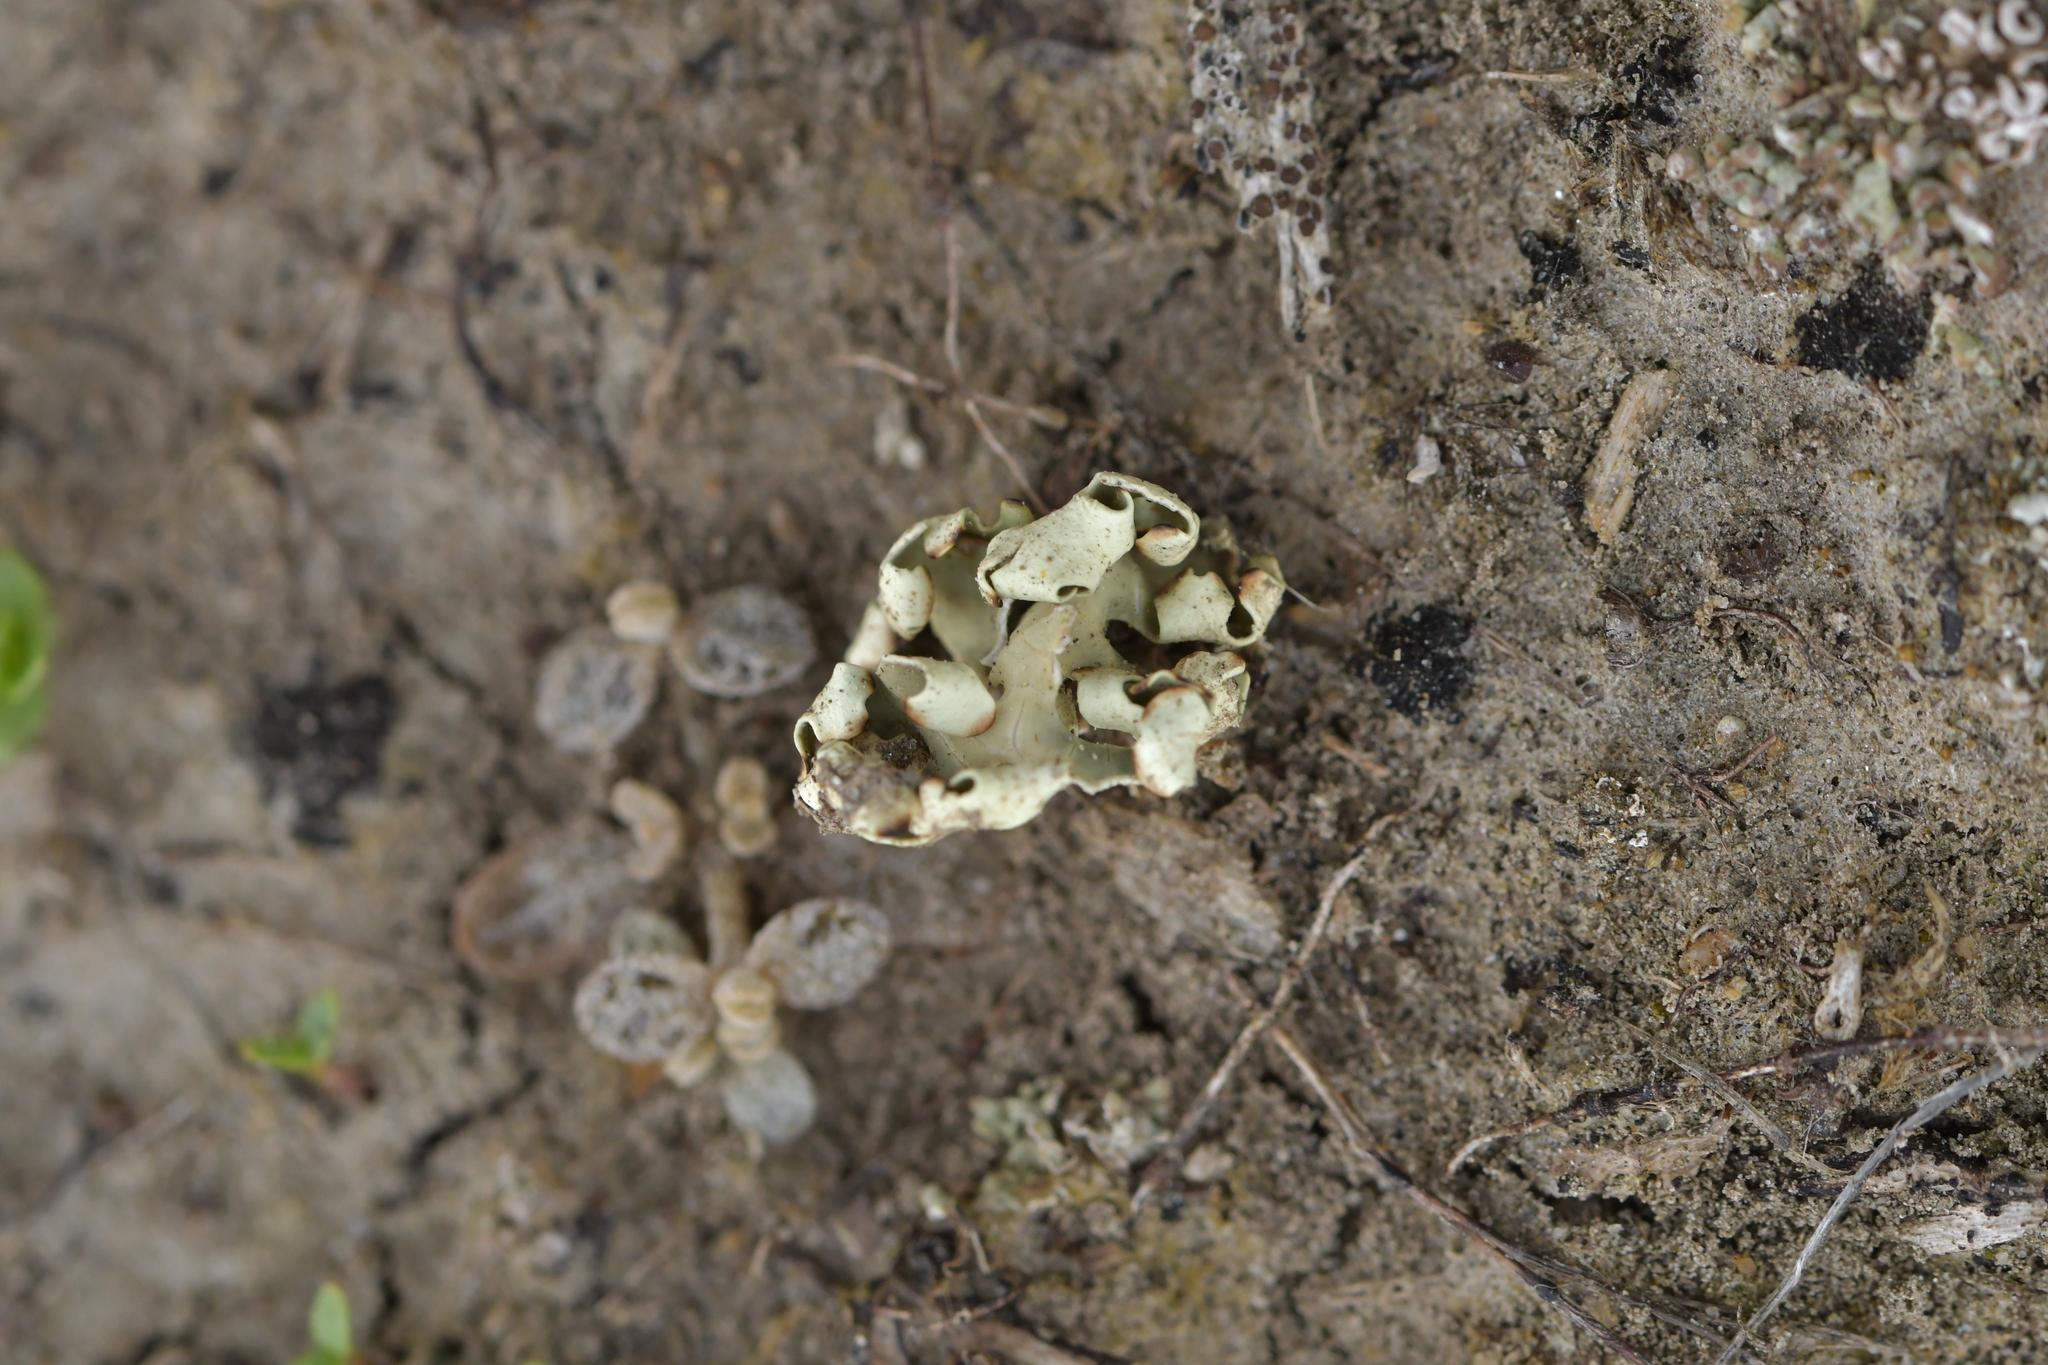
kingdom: Fungi
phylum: Ascomycota
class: Lecanoromycetes
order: Lecanorales
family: Parmeliaceae
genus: Xanthoparmelia
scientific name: Xanthoparmelia semiviridis
